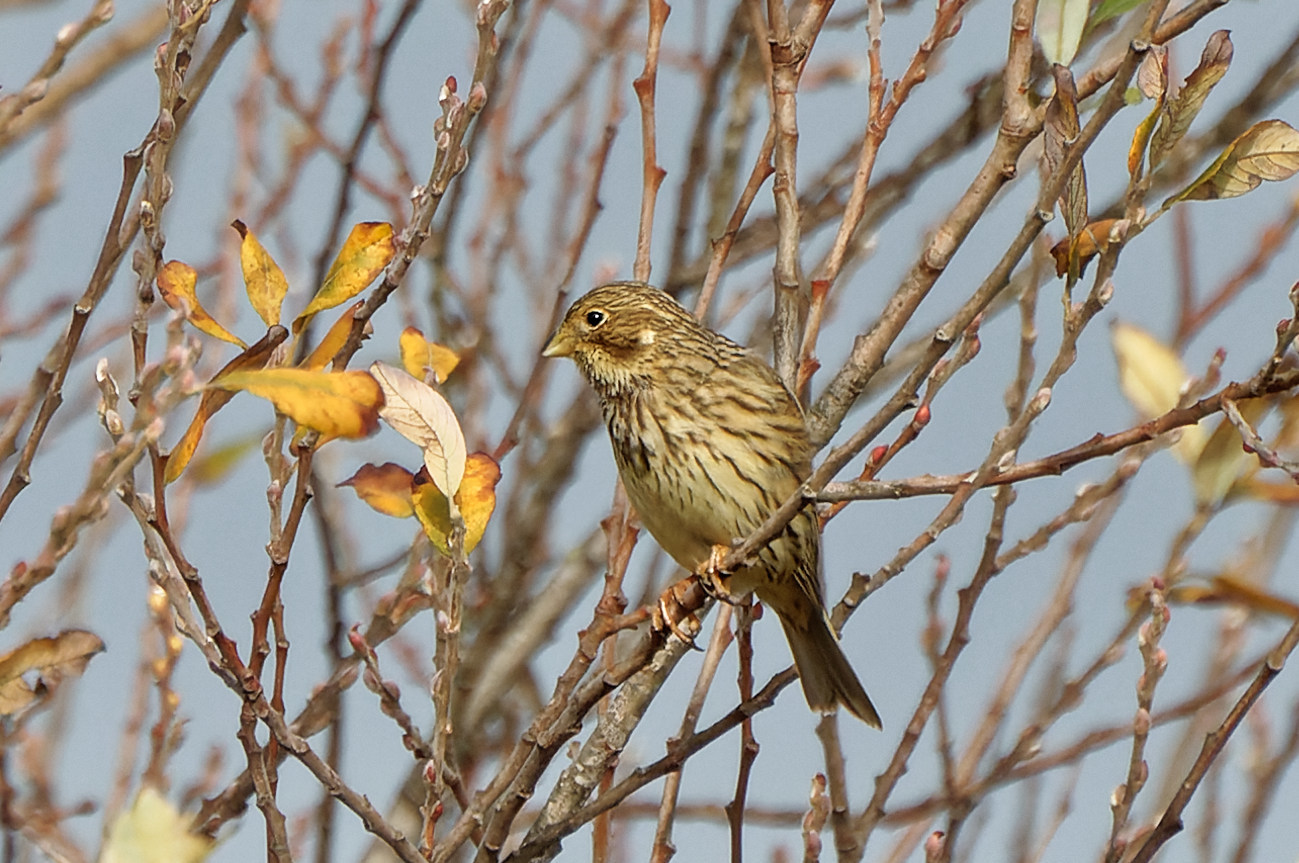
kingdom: Animalia
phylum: Chordata
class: Aves
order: Passeriformes
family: Emberizidae
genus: Emberiza
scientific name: Emberiza calandra
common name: Corn bunting
